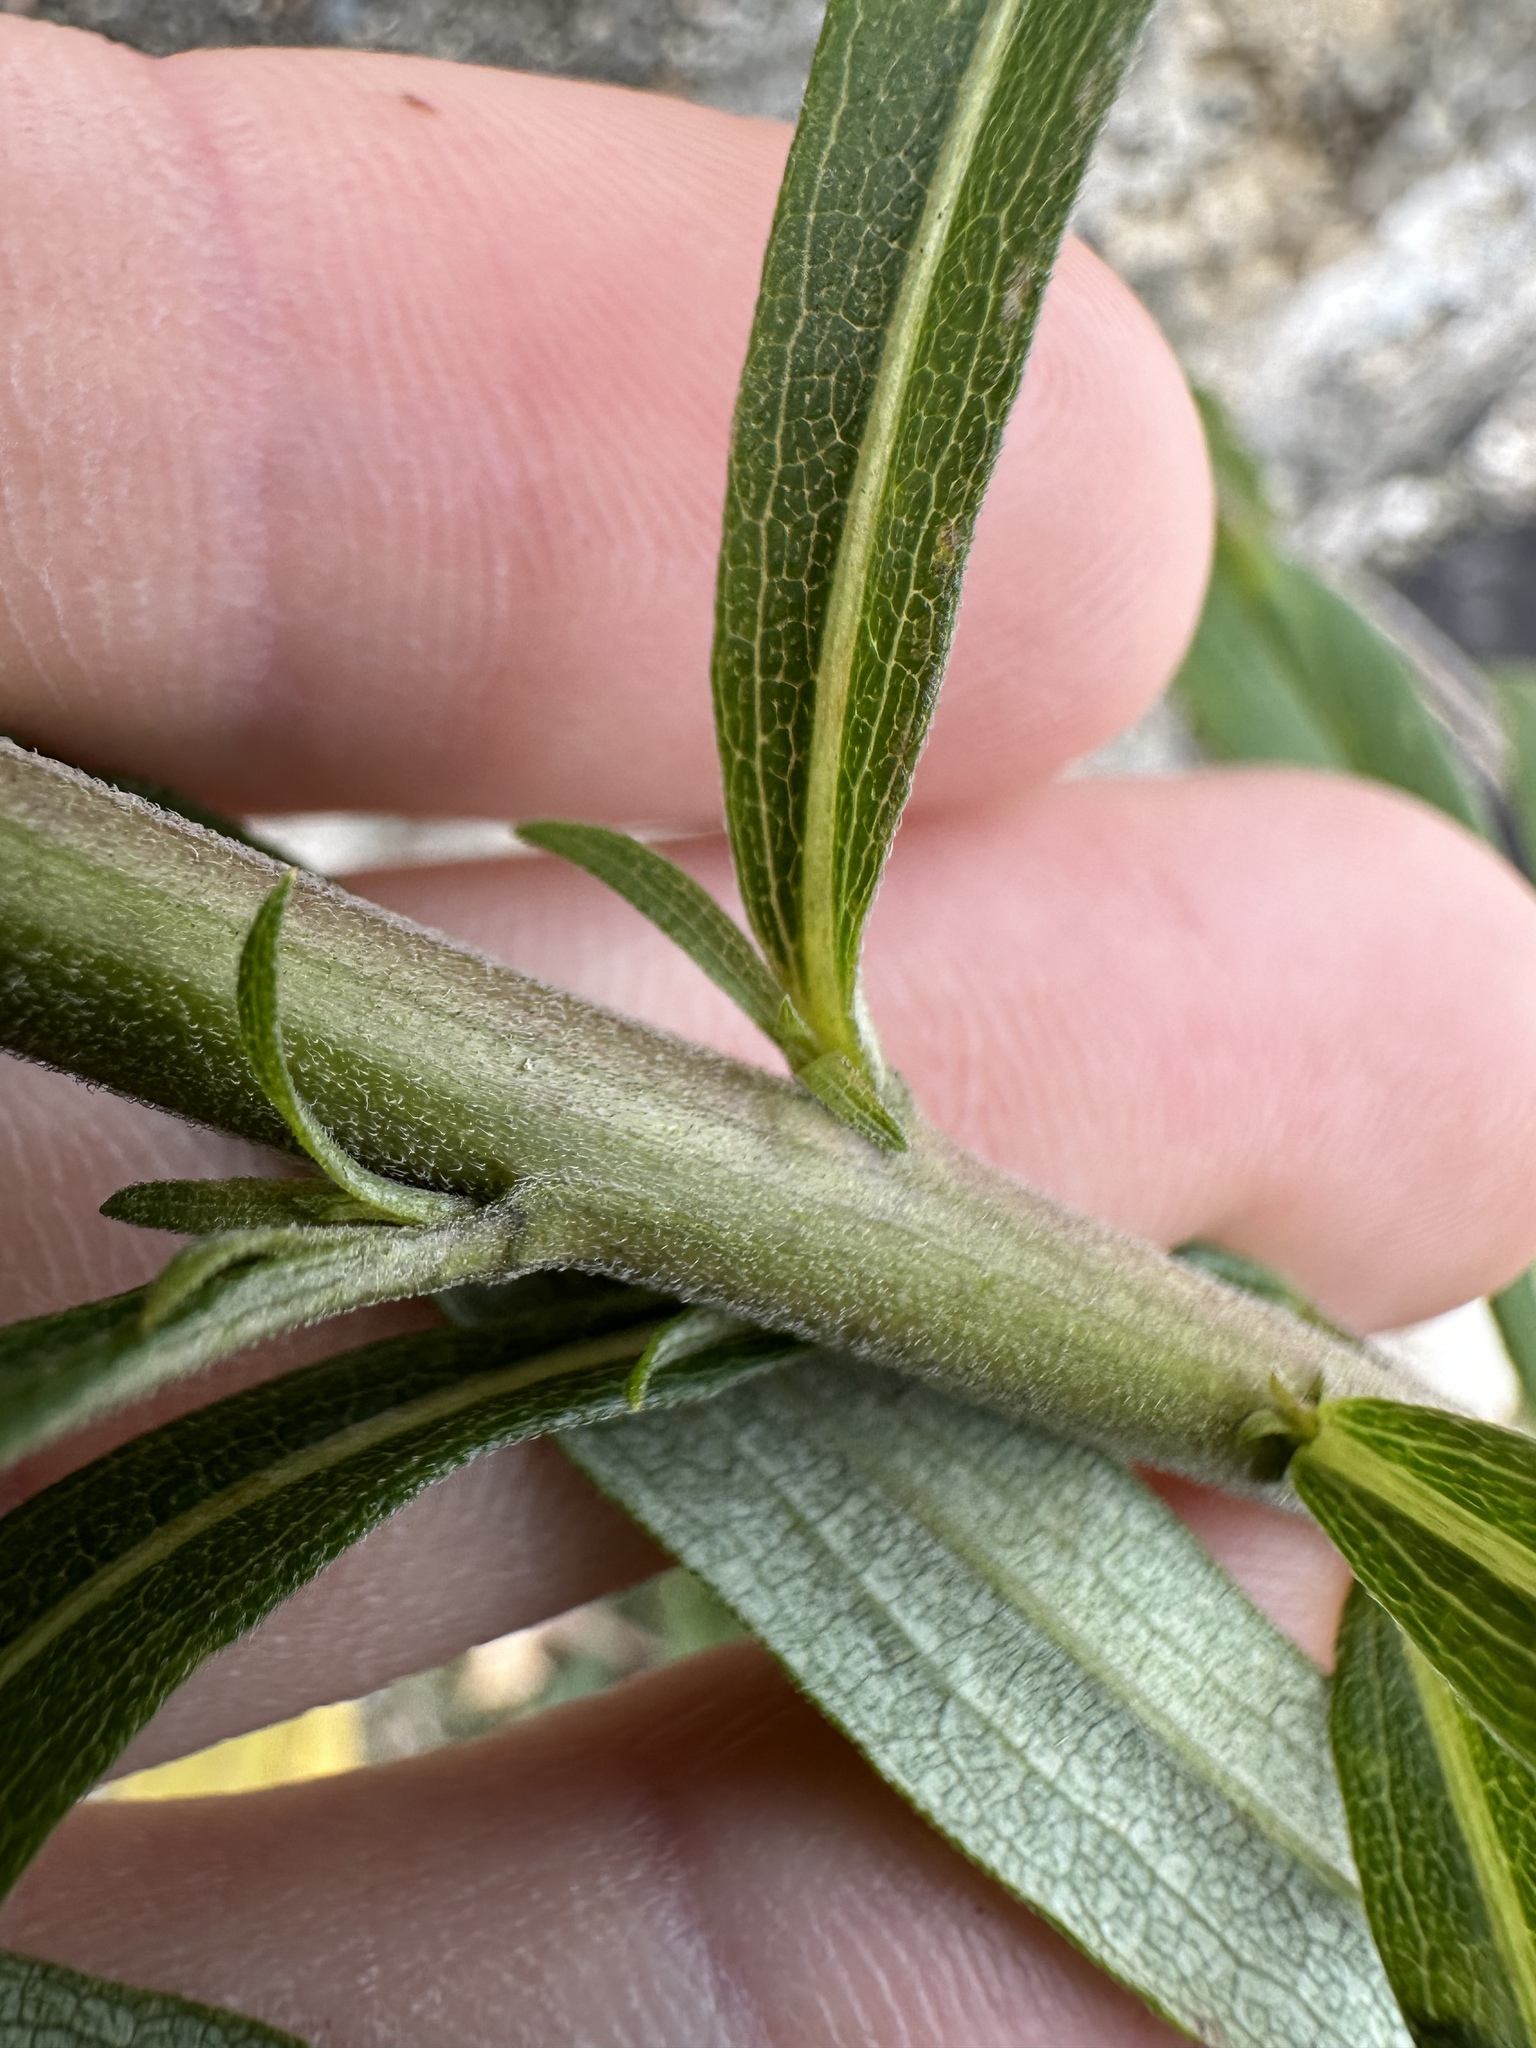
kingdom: Plantae
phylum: Tracheophyta
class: Magnoliopsida
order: Asterales
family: Asteraceae
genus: Solidago
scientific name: Solidago altissima
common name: Late goldenrod
